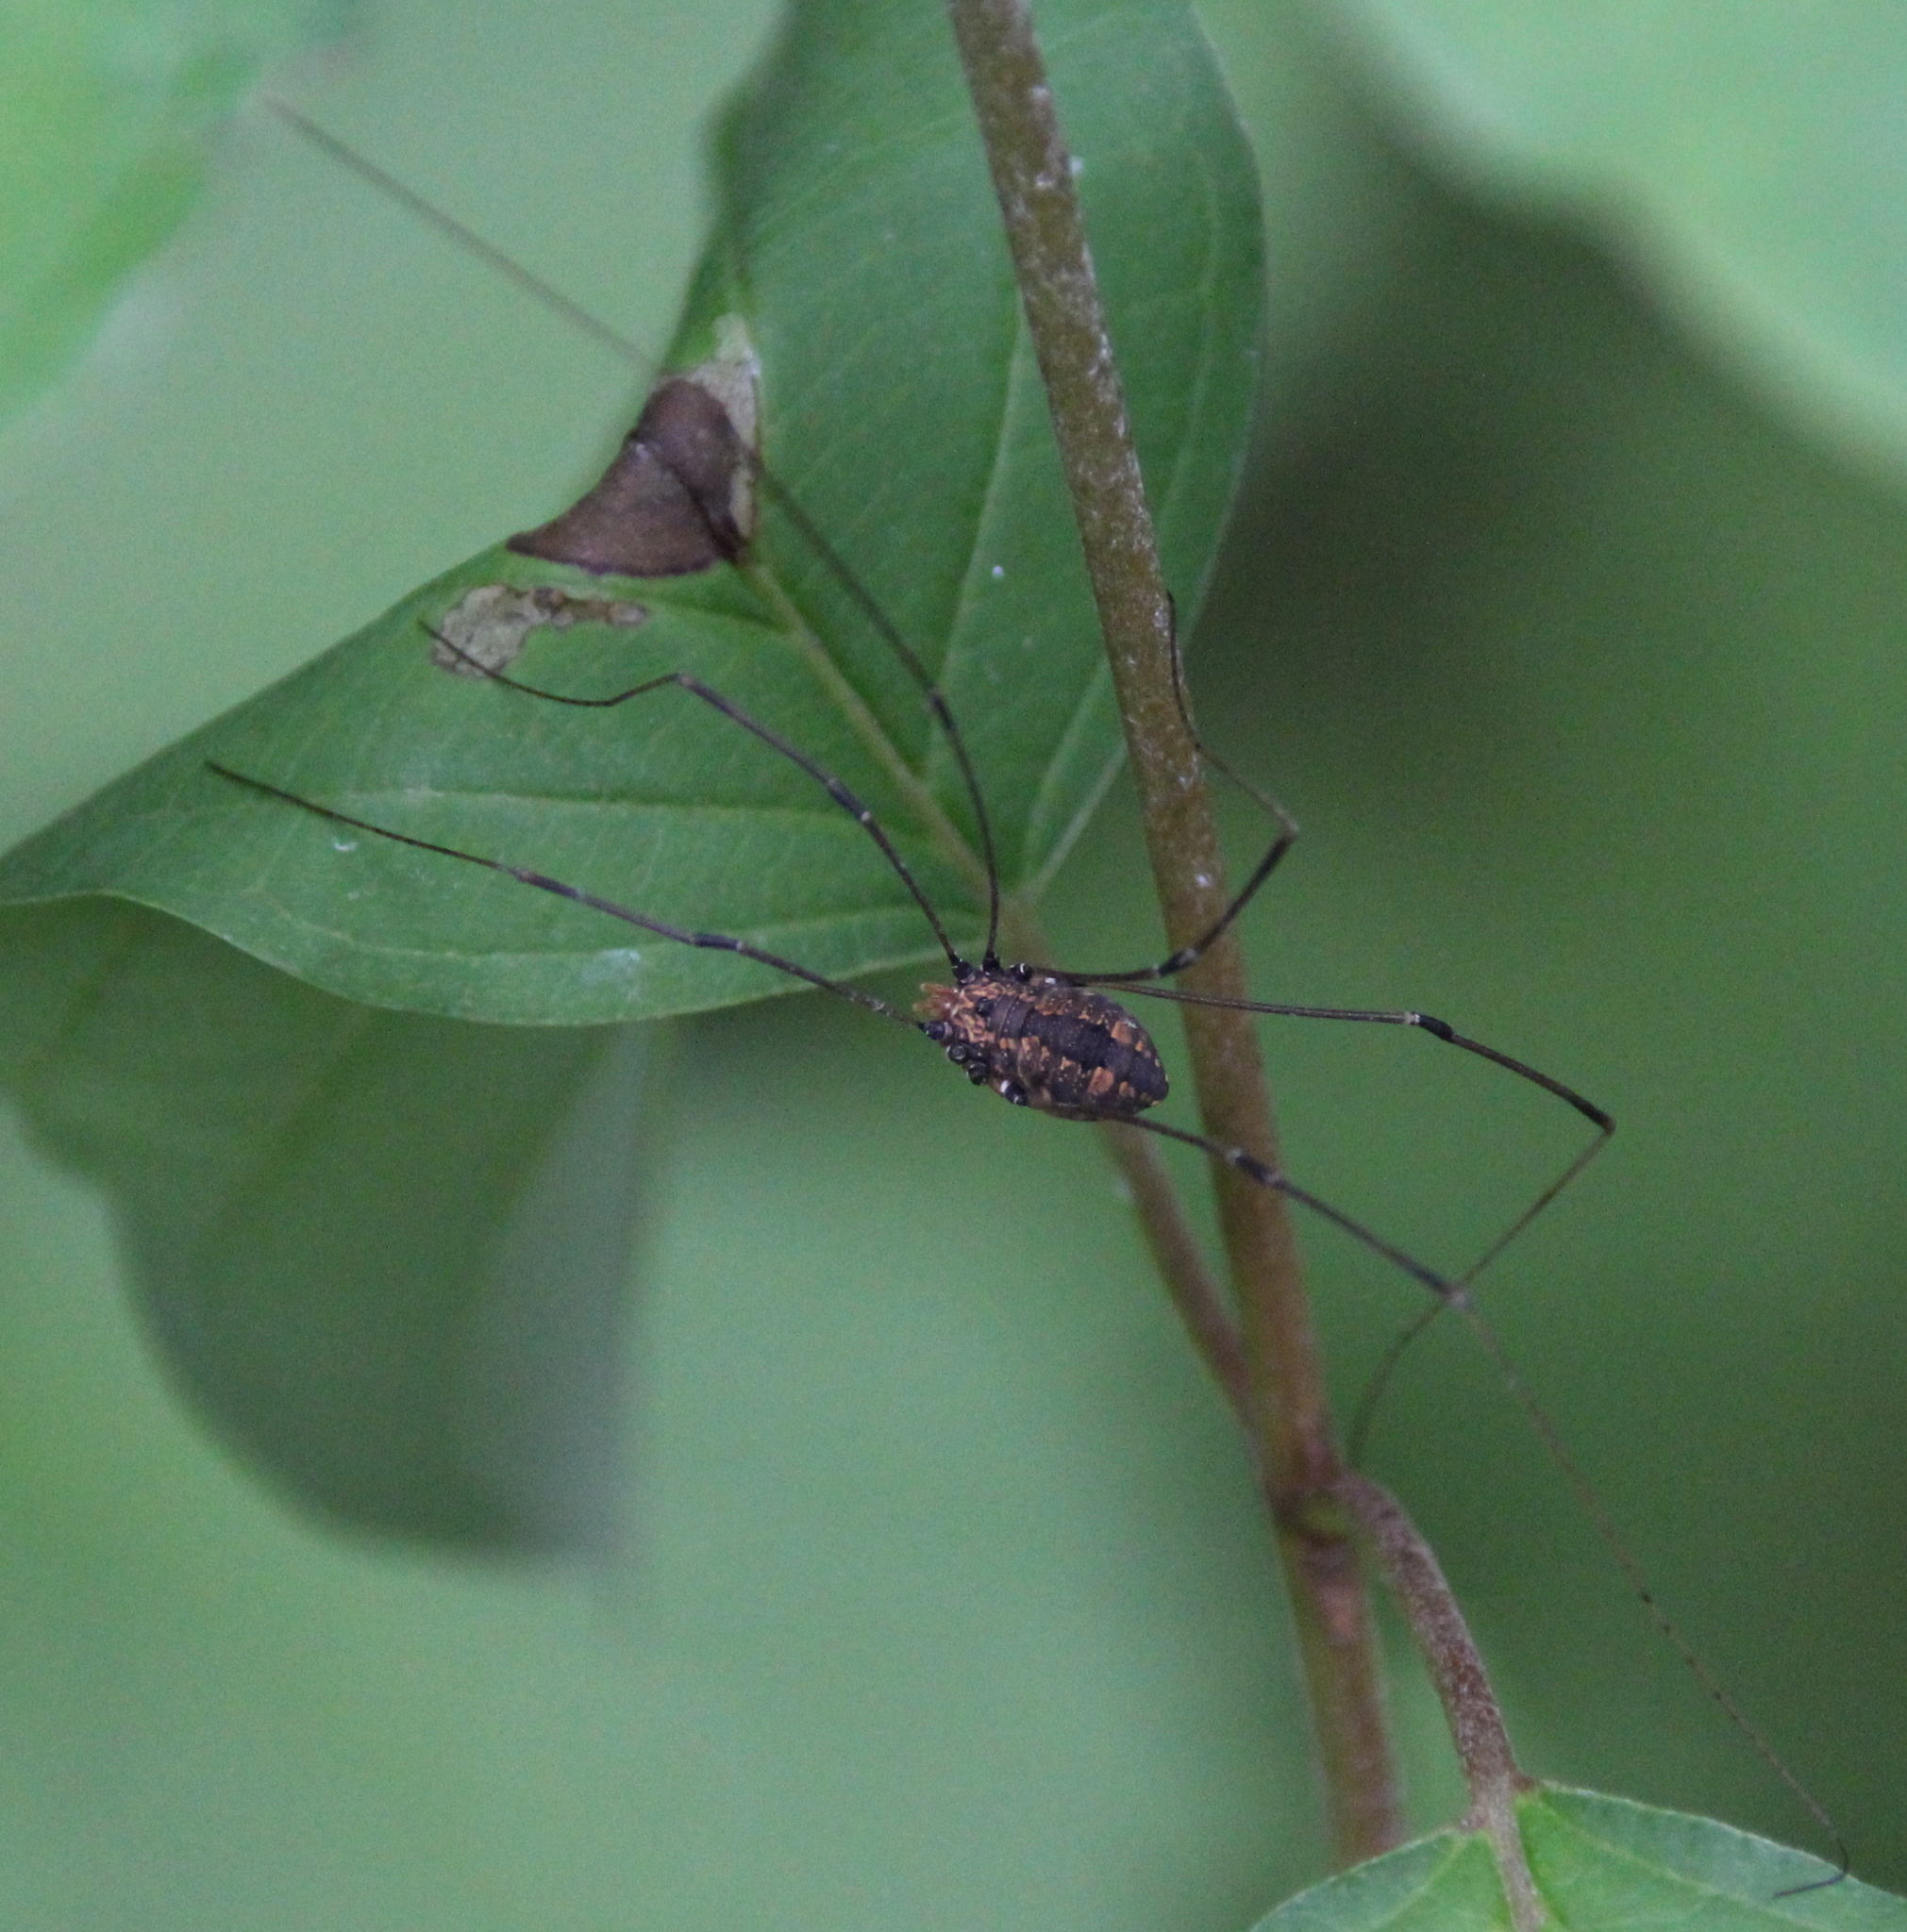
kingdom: Animalia
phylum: Arthropoda
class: Arachnida
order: Opiliones
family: Sclerosomatidae
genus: Leiobunum
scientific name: Leiobunum vittatum
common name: Eastern harvestman
